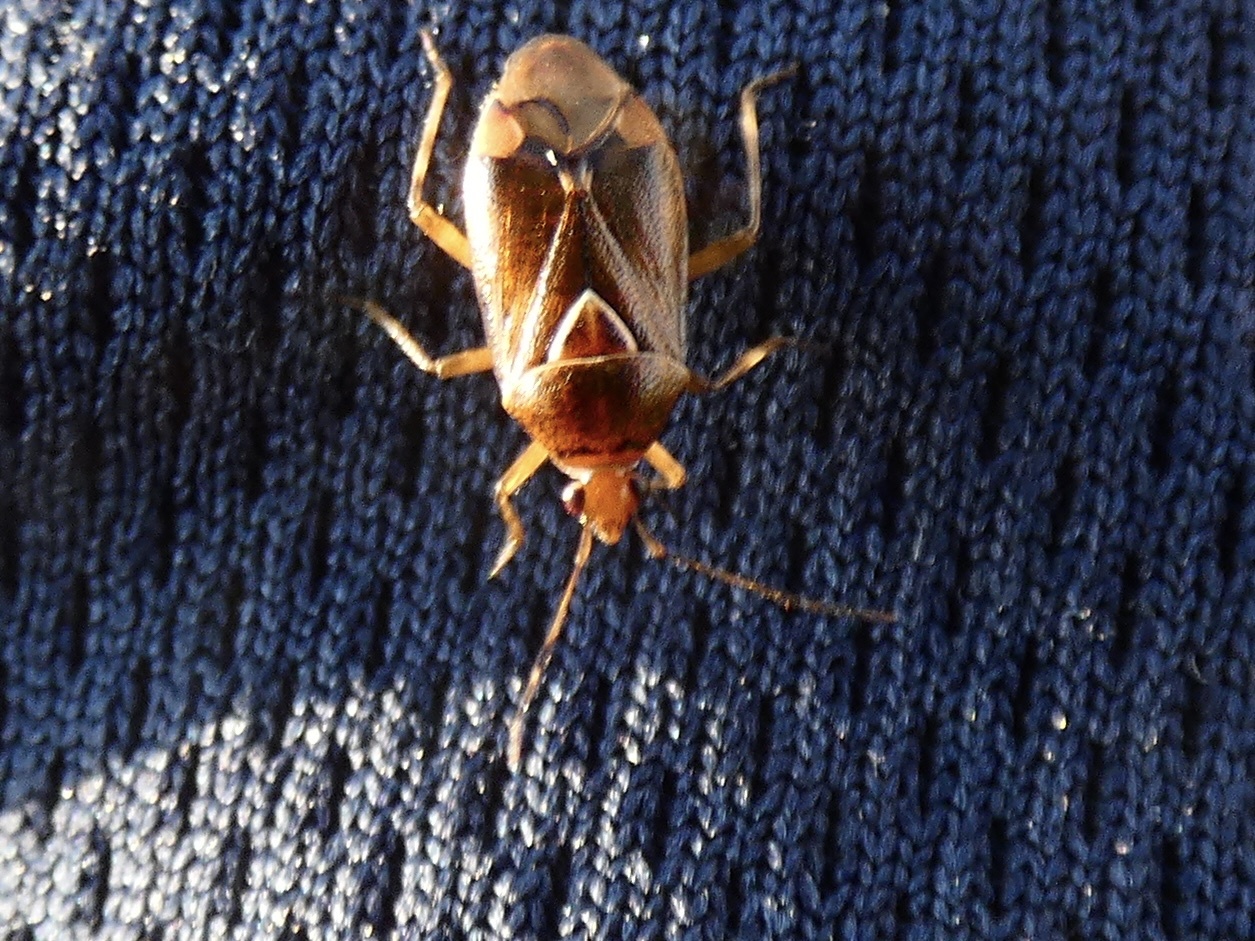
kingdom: Animalia
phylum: Arthropoda
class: Insecta
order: Hemiptera
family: Miridae
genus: Deraeocoris
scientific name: Deraeocoris flavilinea
